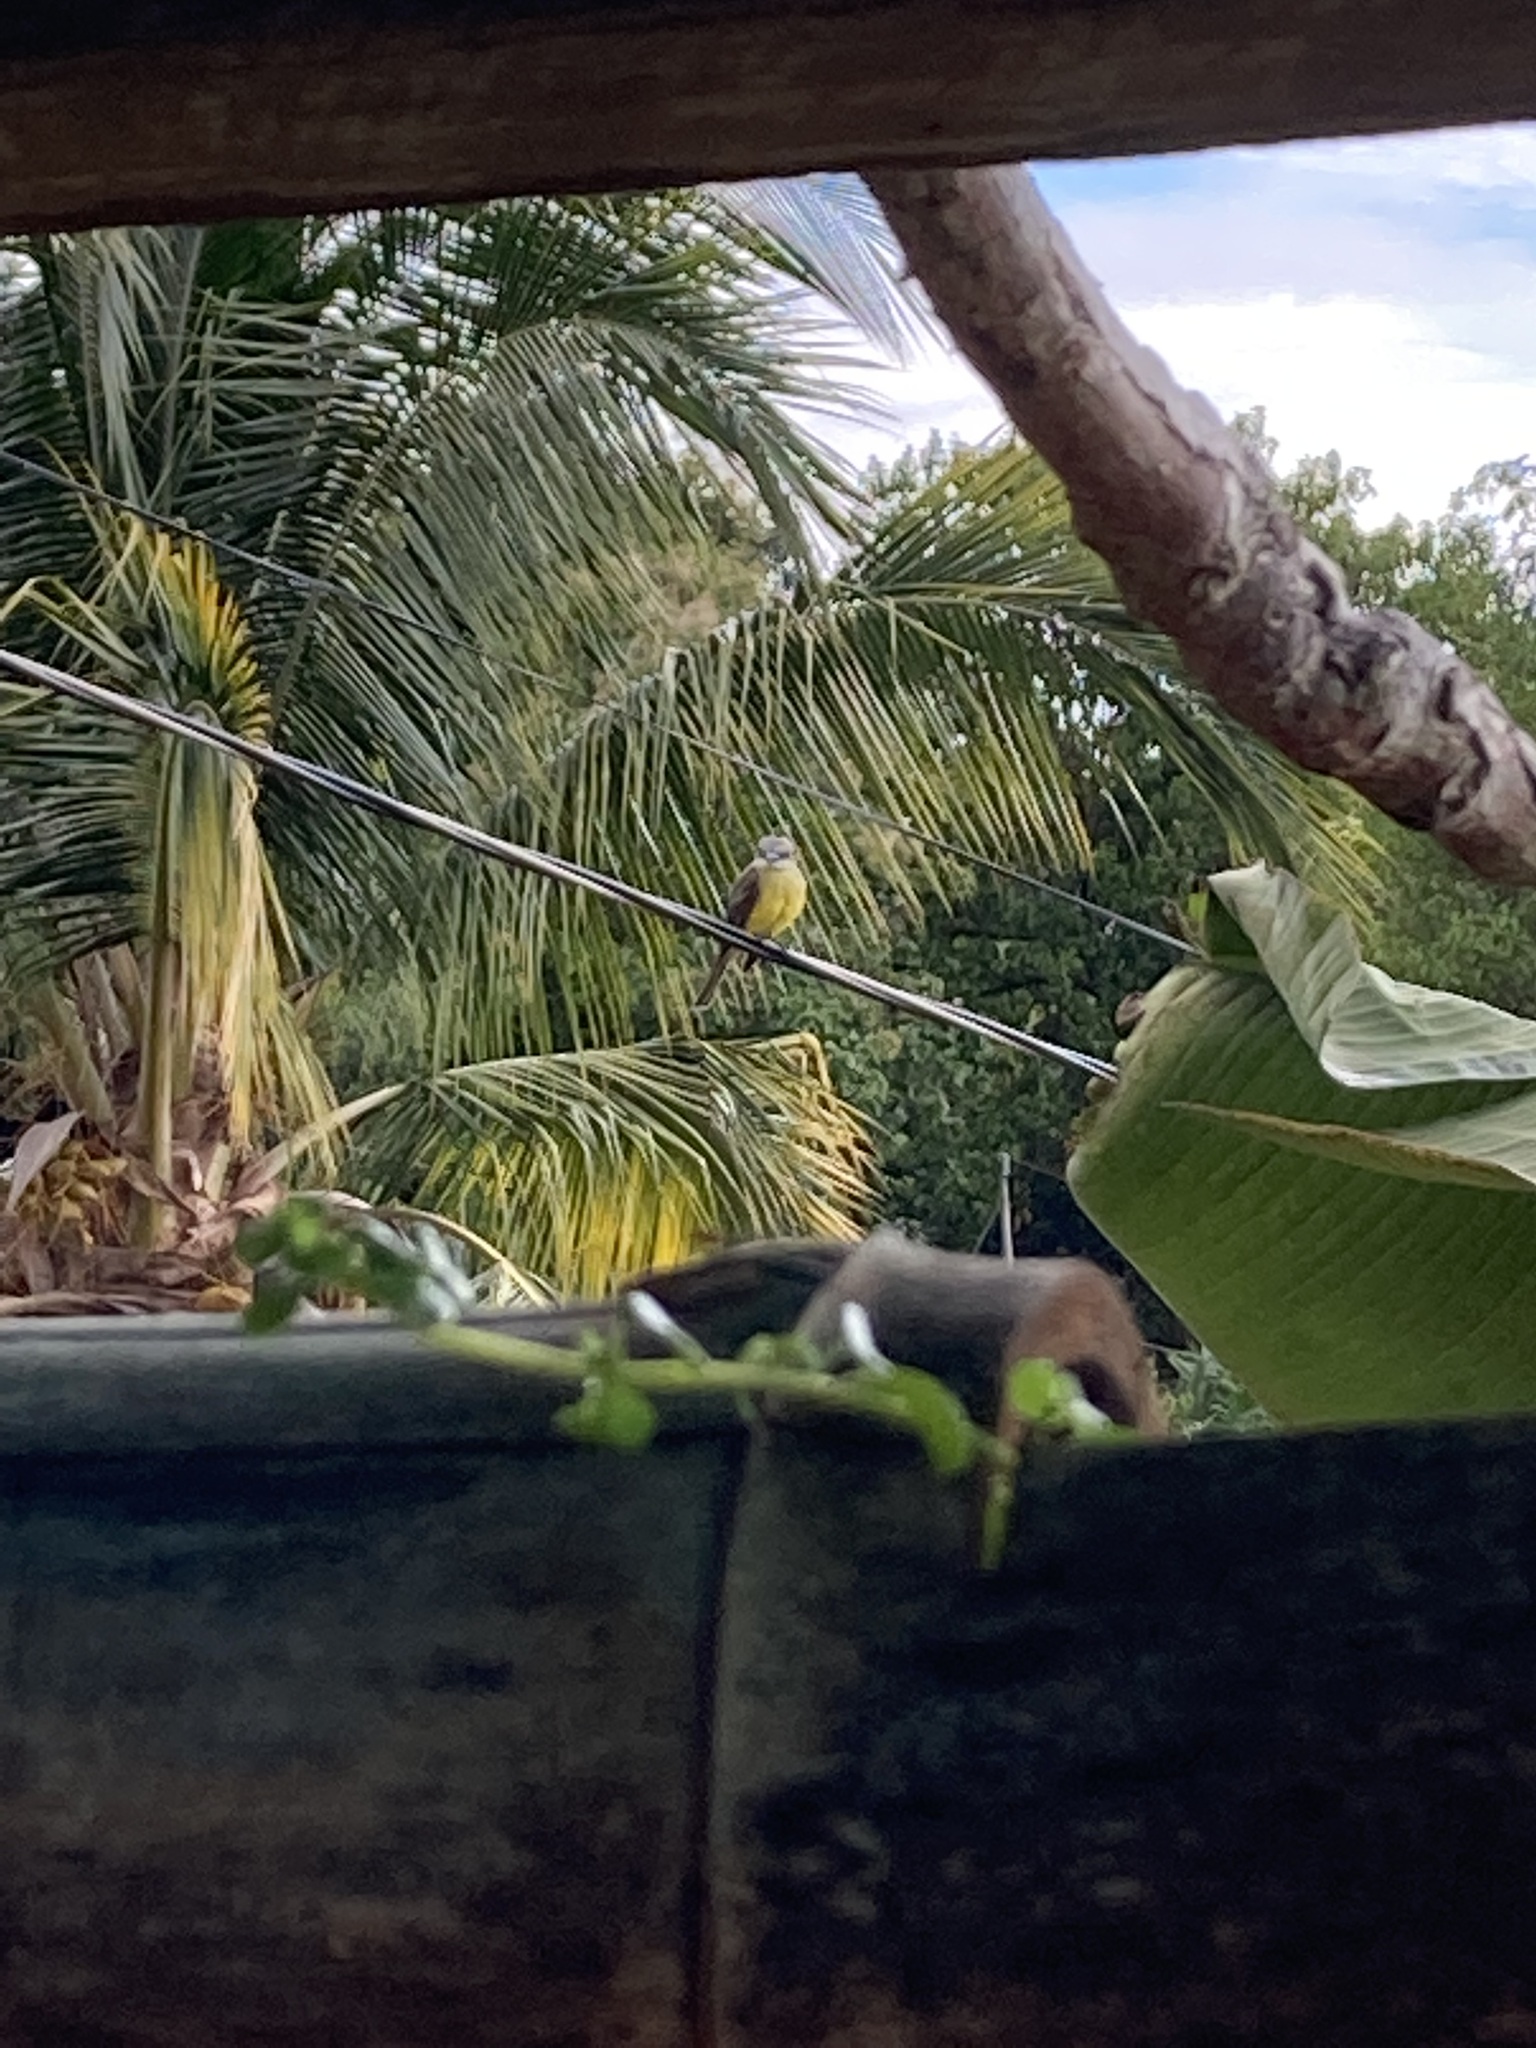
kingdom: Animalia
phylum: Chordata
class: Aves
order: Passeriformes
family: Tyrannidae
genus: Tyrannus
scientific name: Tyrannus melancholicus
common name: Tropical kingbird
